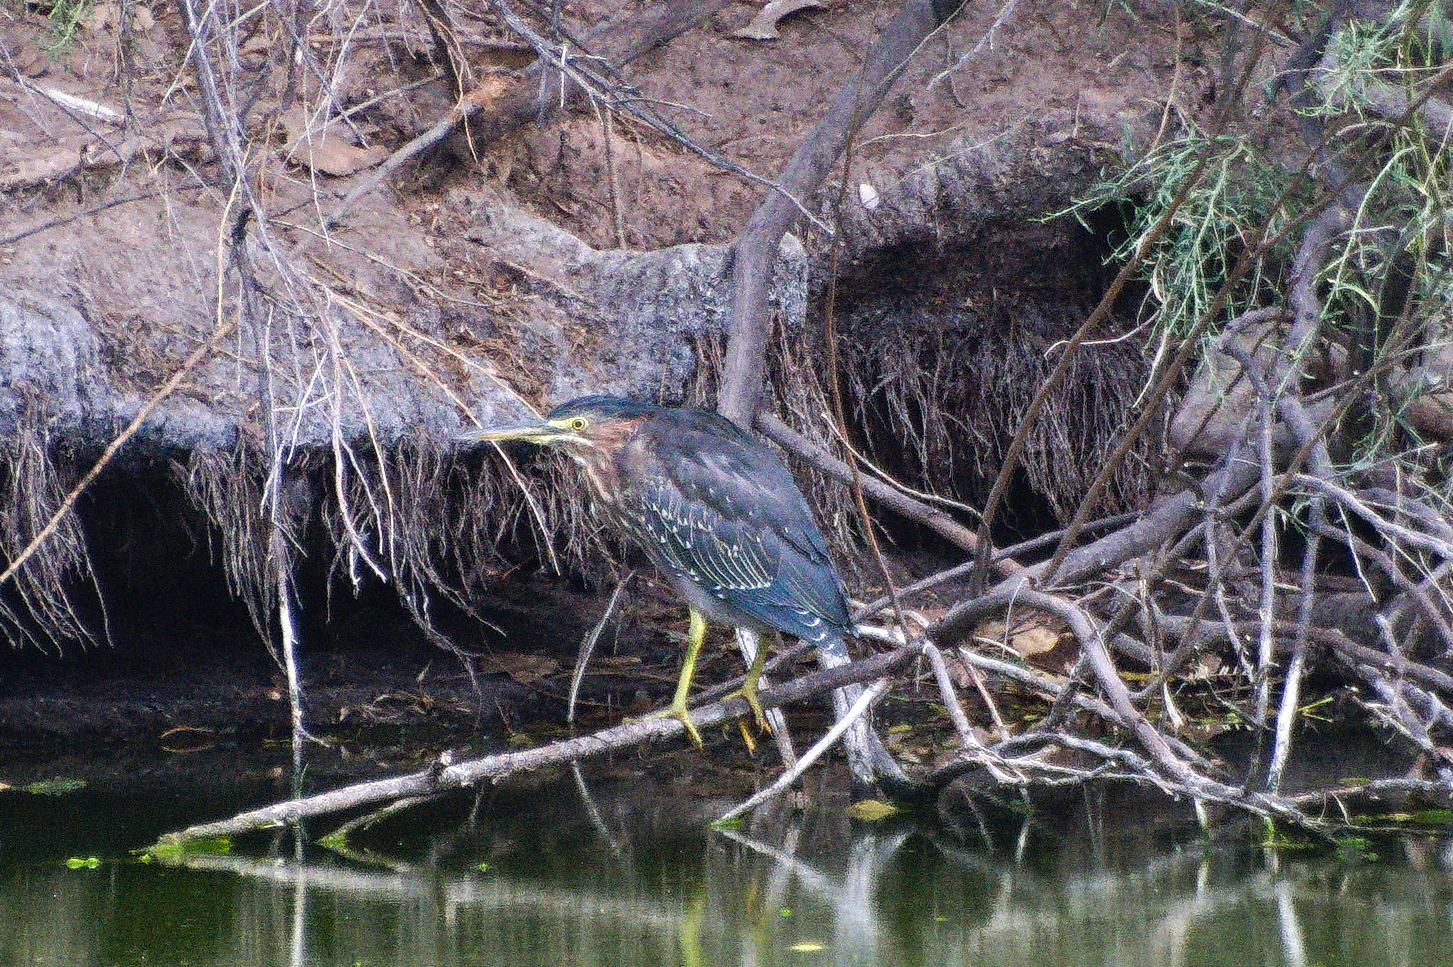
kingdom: Animalia
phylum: Chordata
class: Aves
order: Pelecaniformes
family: Ardeidae
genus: Butorides
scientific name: Butorides virescens
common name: Green heron
